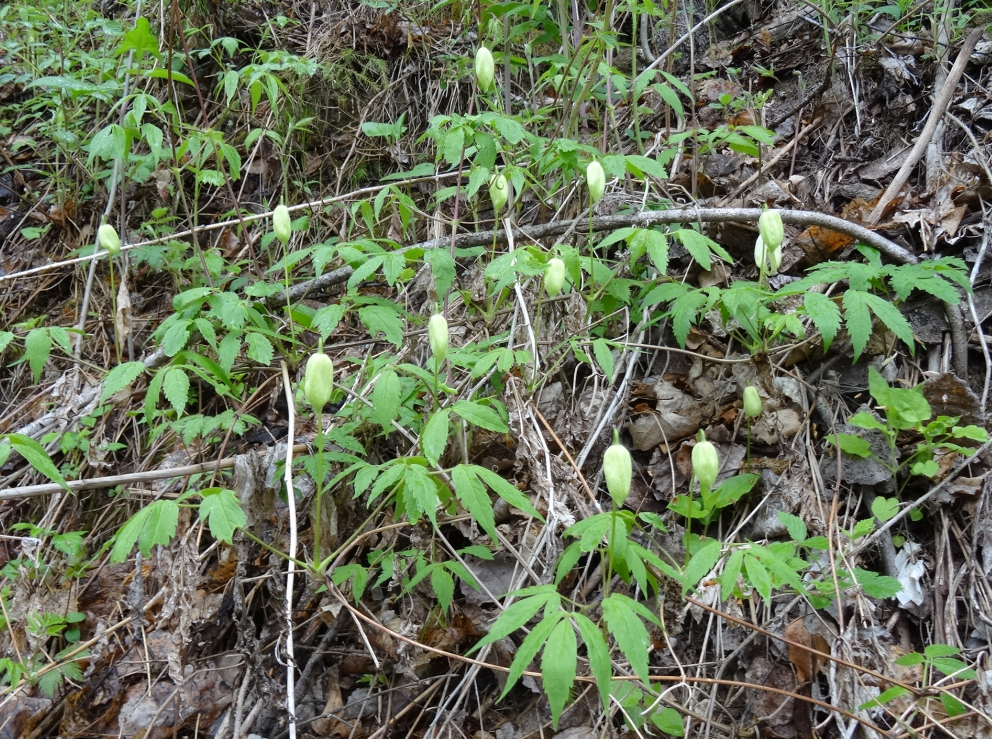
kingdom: Plantae
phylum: Tracheophyta
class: Magnoliopsida
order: Ranunculales
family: Ranunculaceae
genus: Clematis
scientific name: Clematis sibirica
